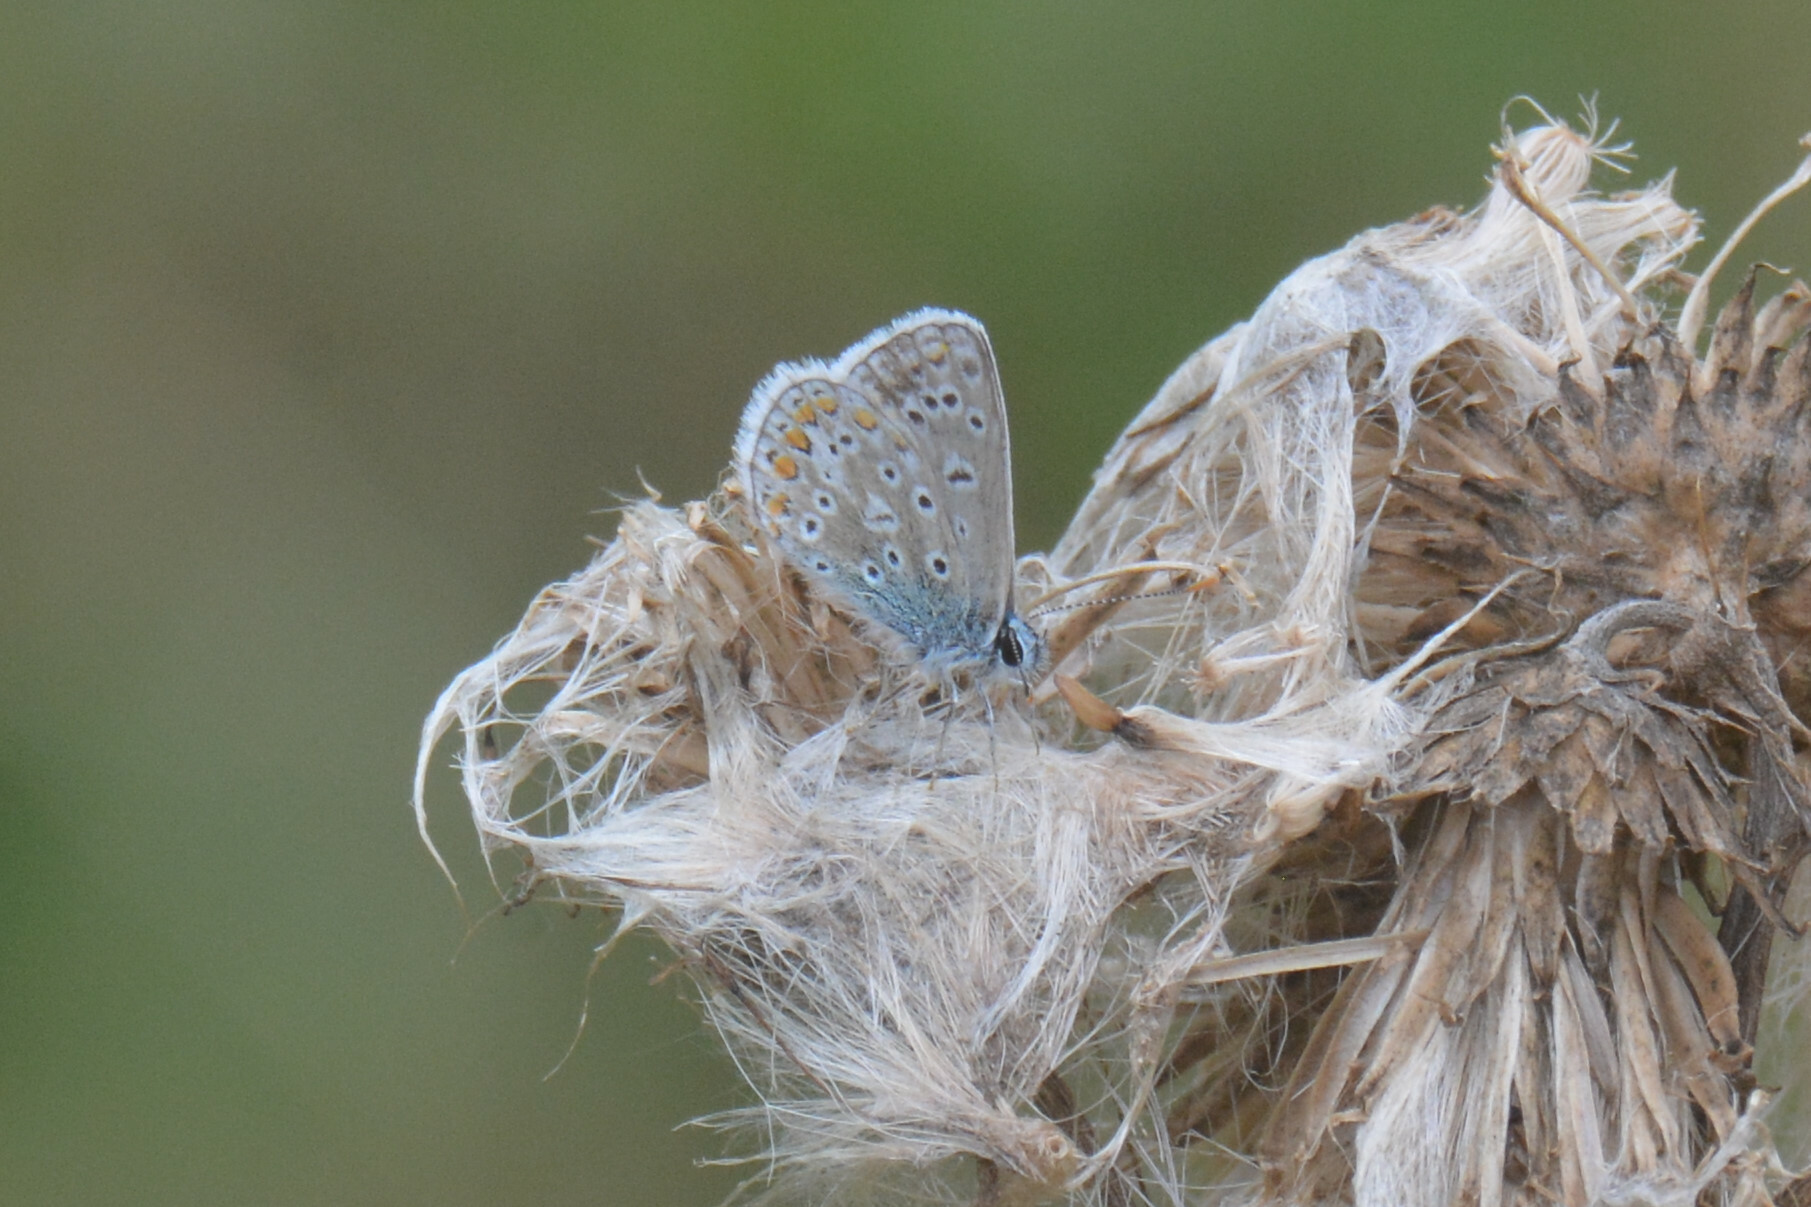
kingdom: Animalia
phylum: Arthropoda
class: Insecta
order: Lepidoptera
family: Lycaenidae
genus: Polyommatus
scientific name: Polyommatus icarus
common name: Common blue
